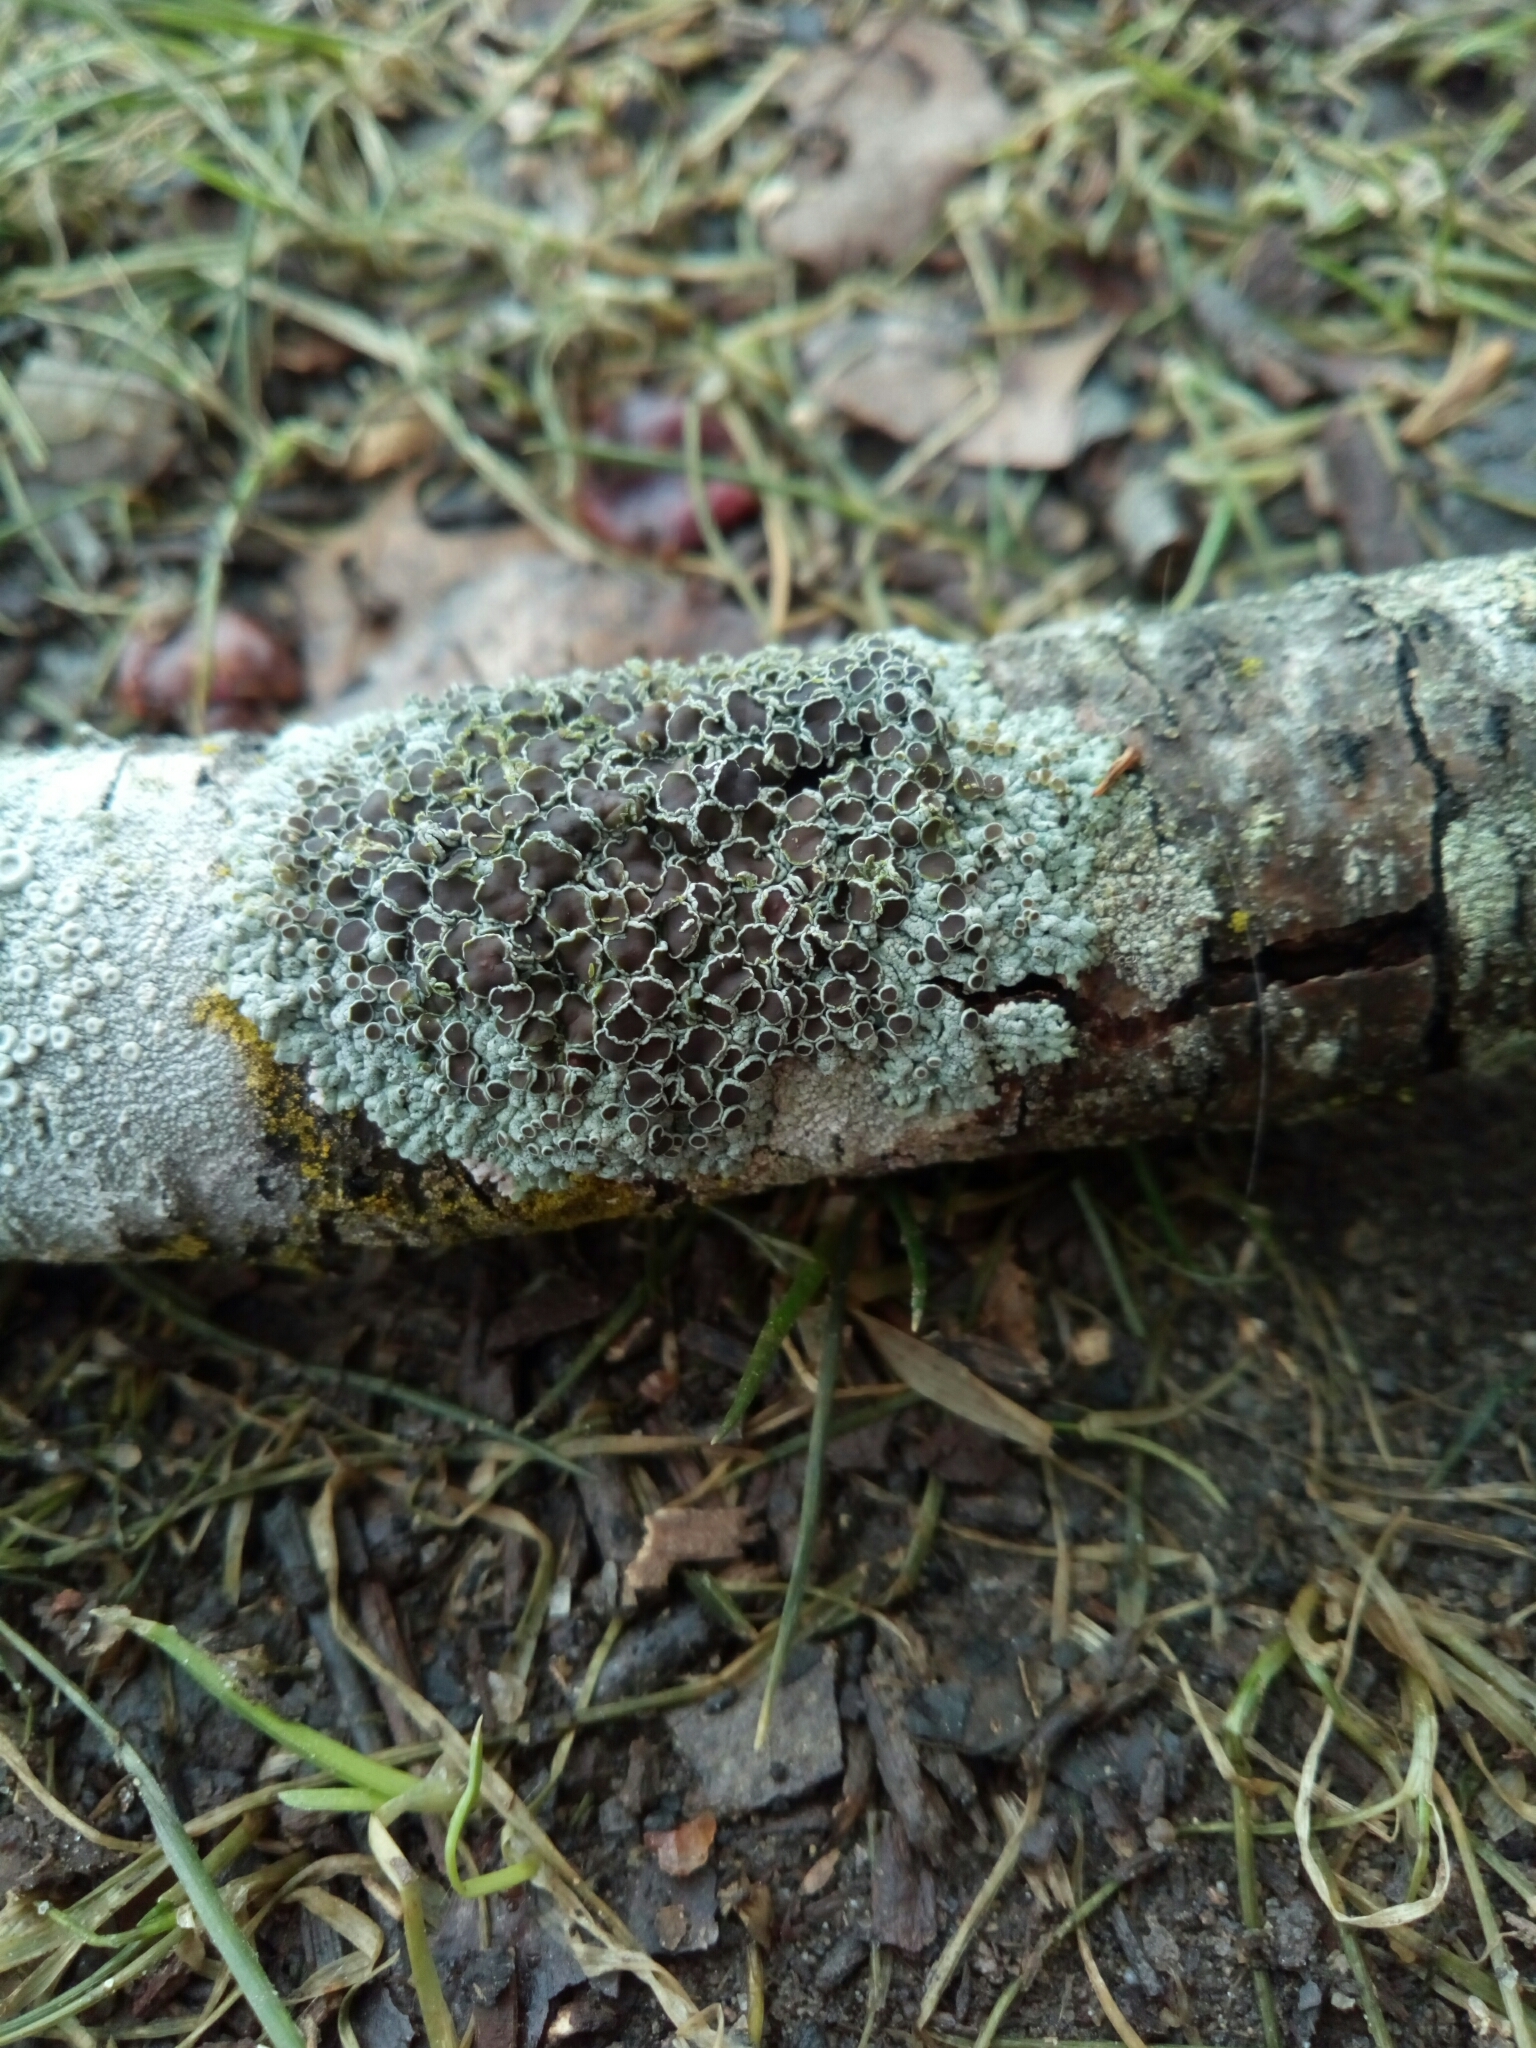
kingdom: Fungi
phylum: Ascomycota
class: Lecanoromycetes
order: Caliciales
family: Physciaceae
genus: Physcia
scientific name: Physcia stellaris
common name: Star rosette lichen
